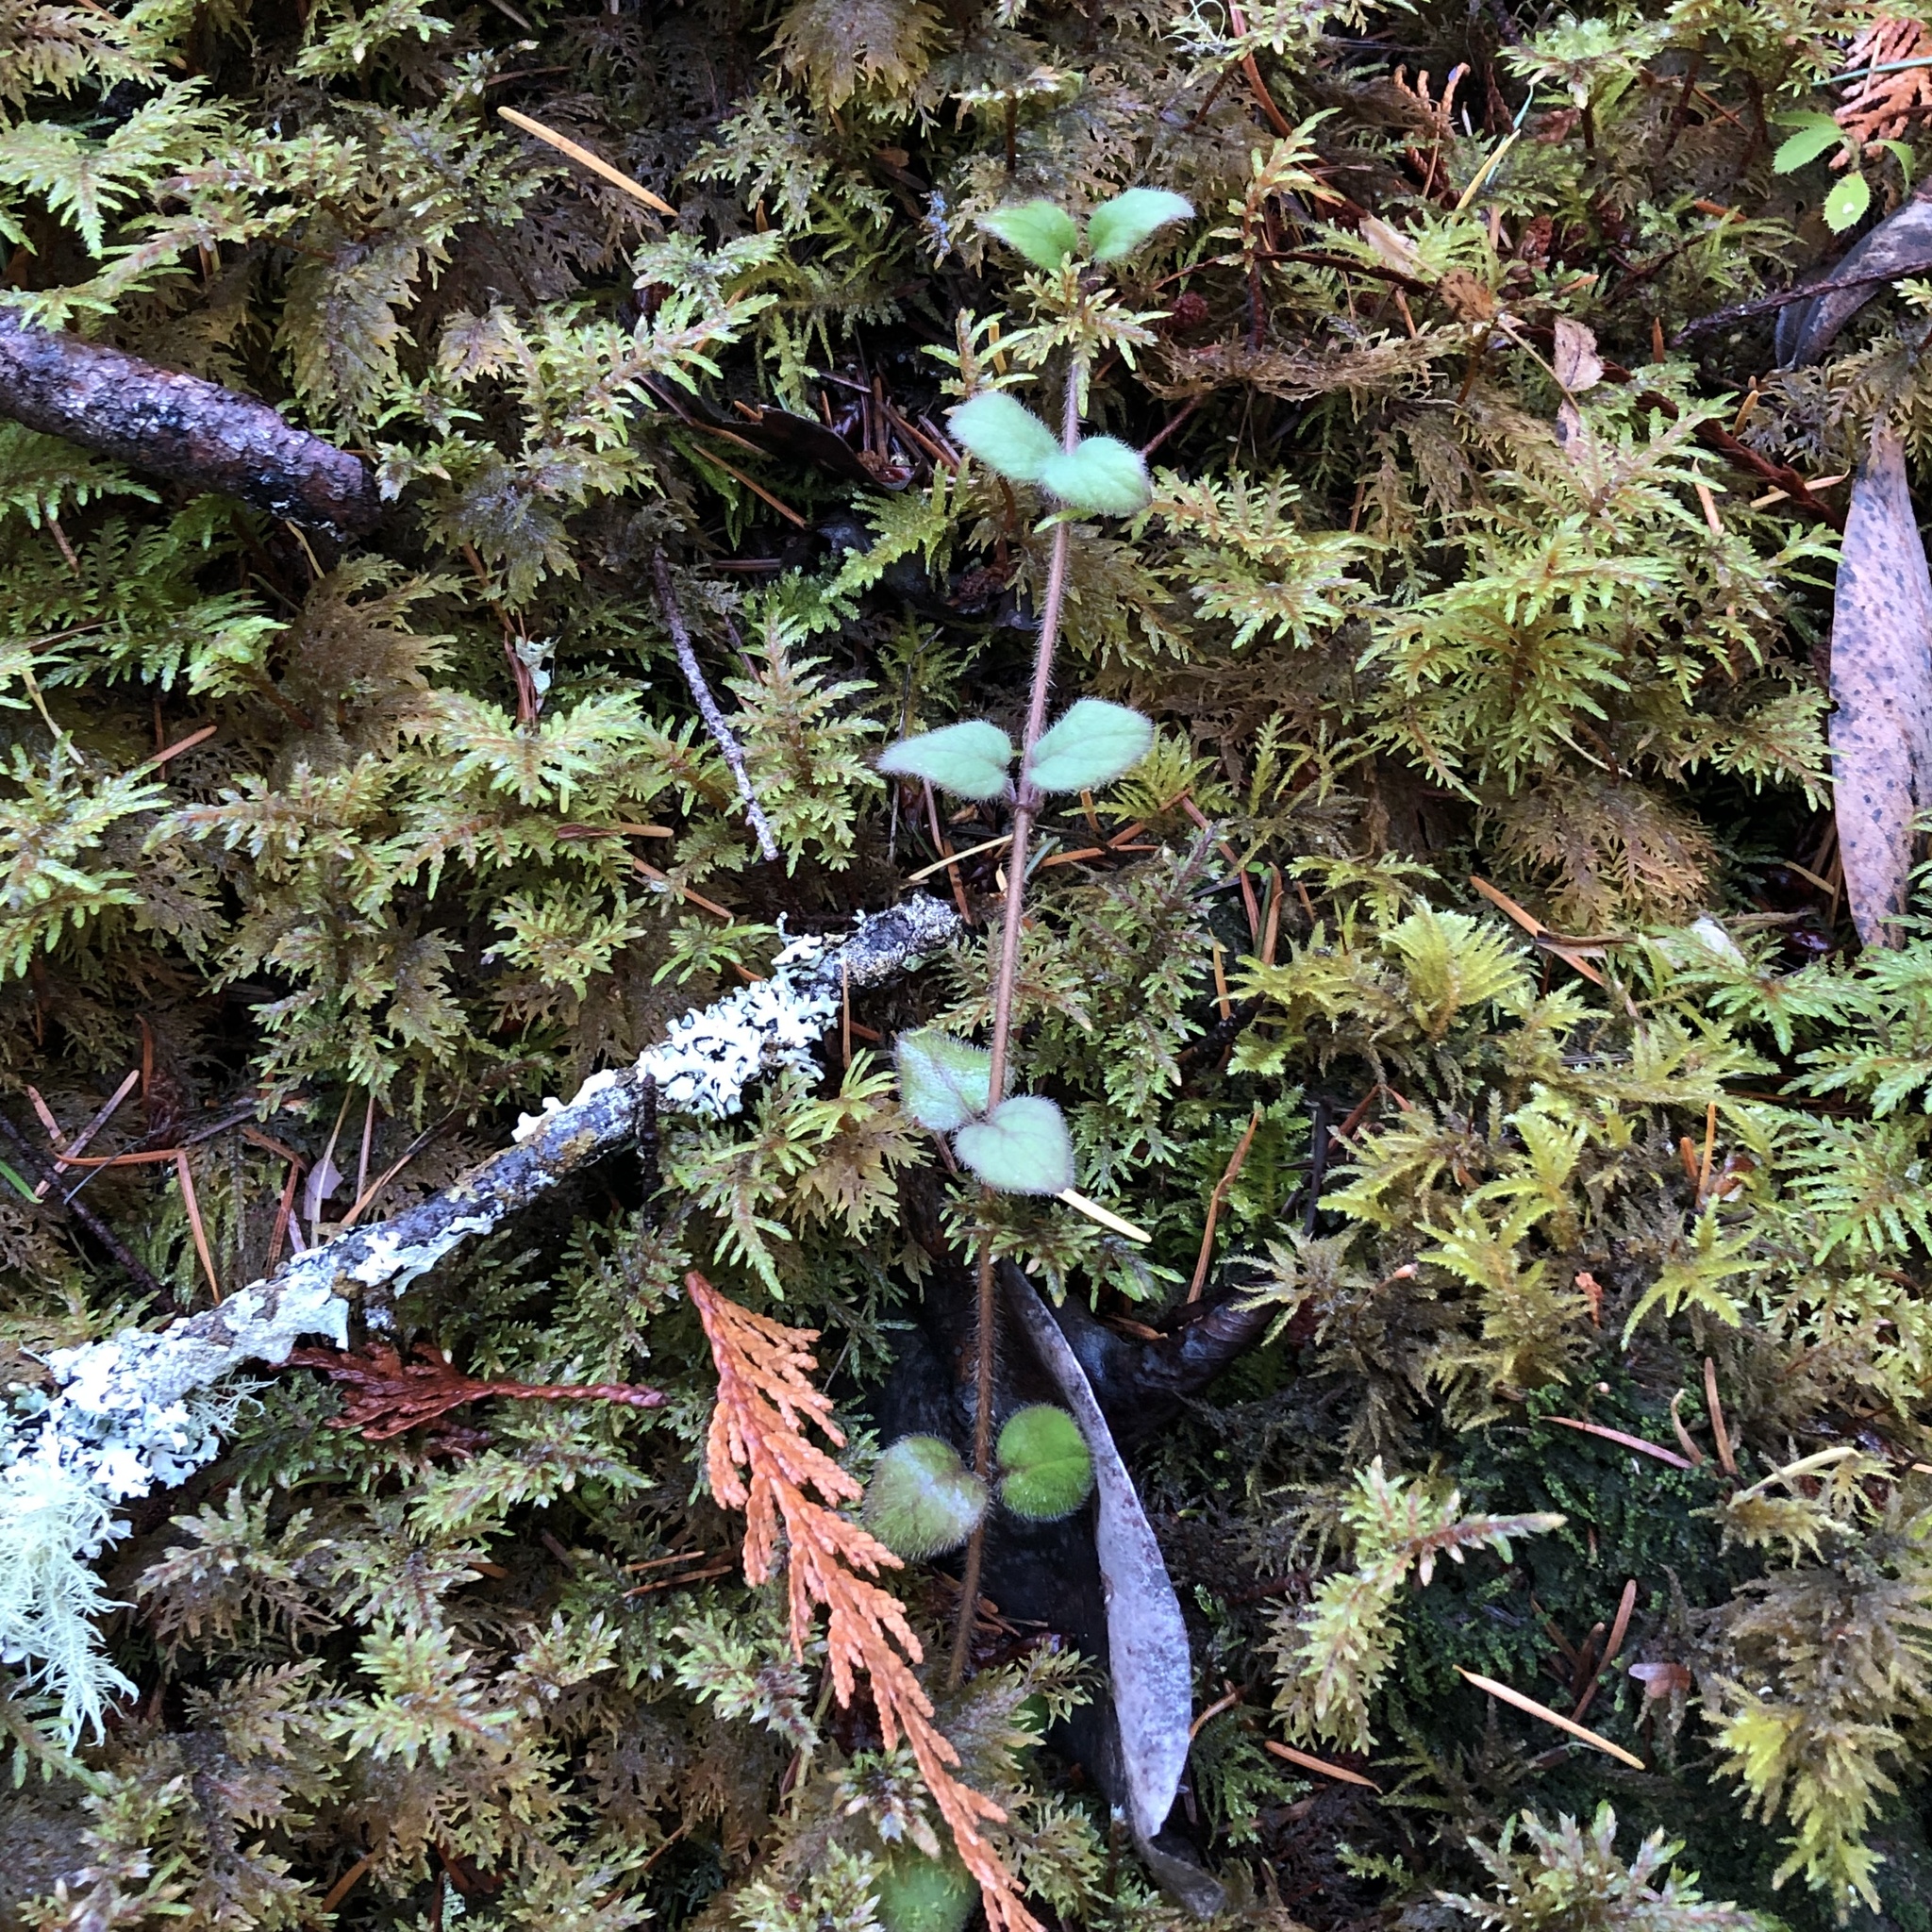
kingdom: Plantae
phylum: Tracheophyta
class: Magnoliopsida
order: Dipsacales
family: Caprifoliaceae
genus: Lonicera
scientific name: Lonicera hispidula
